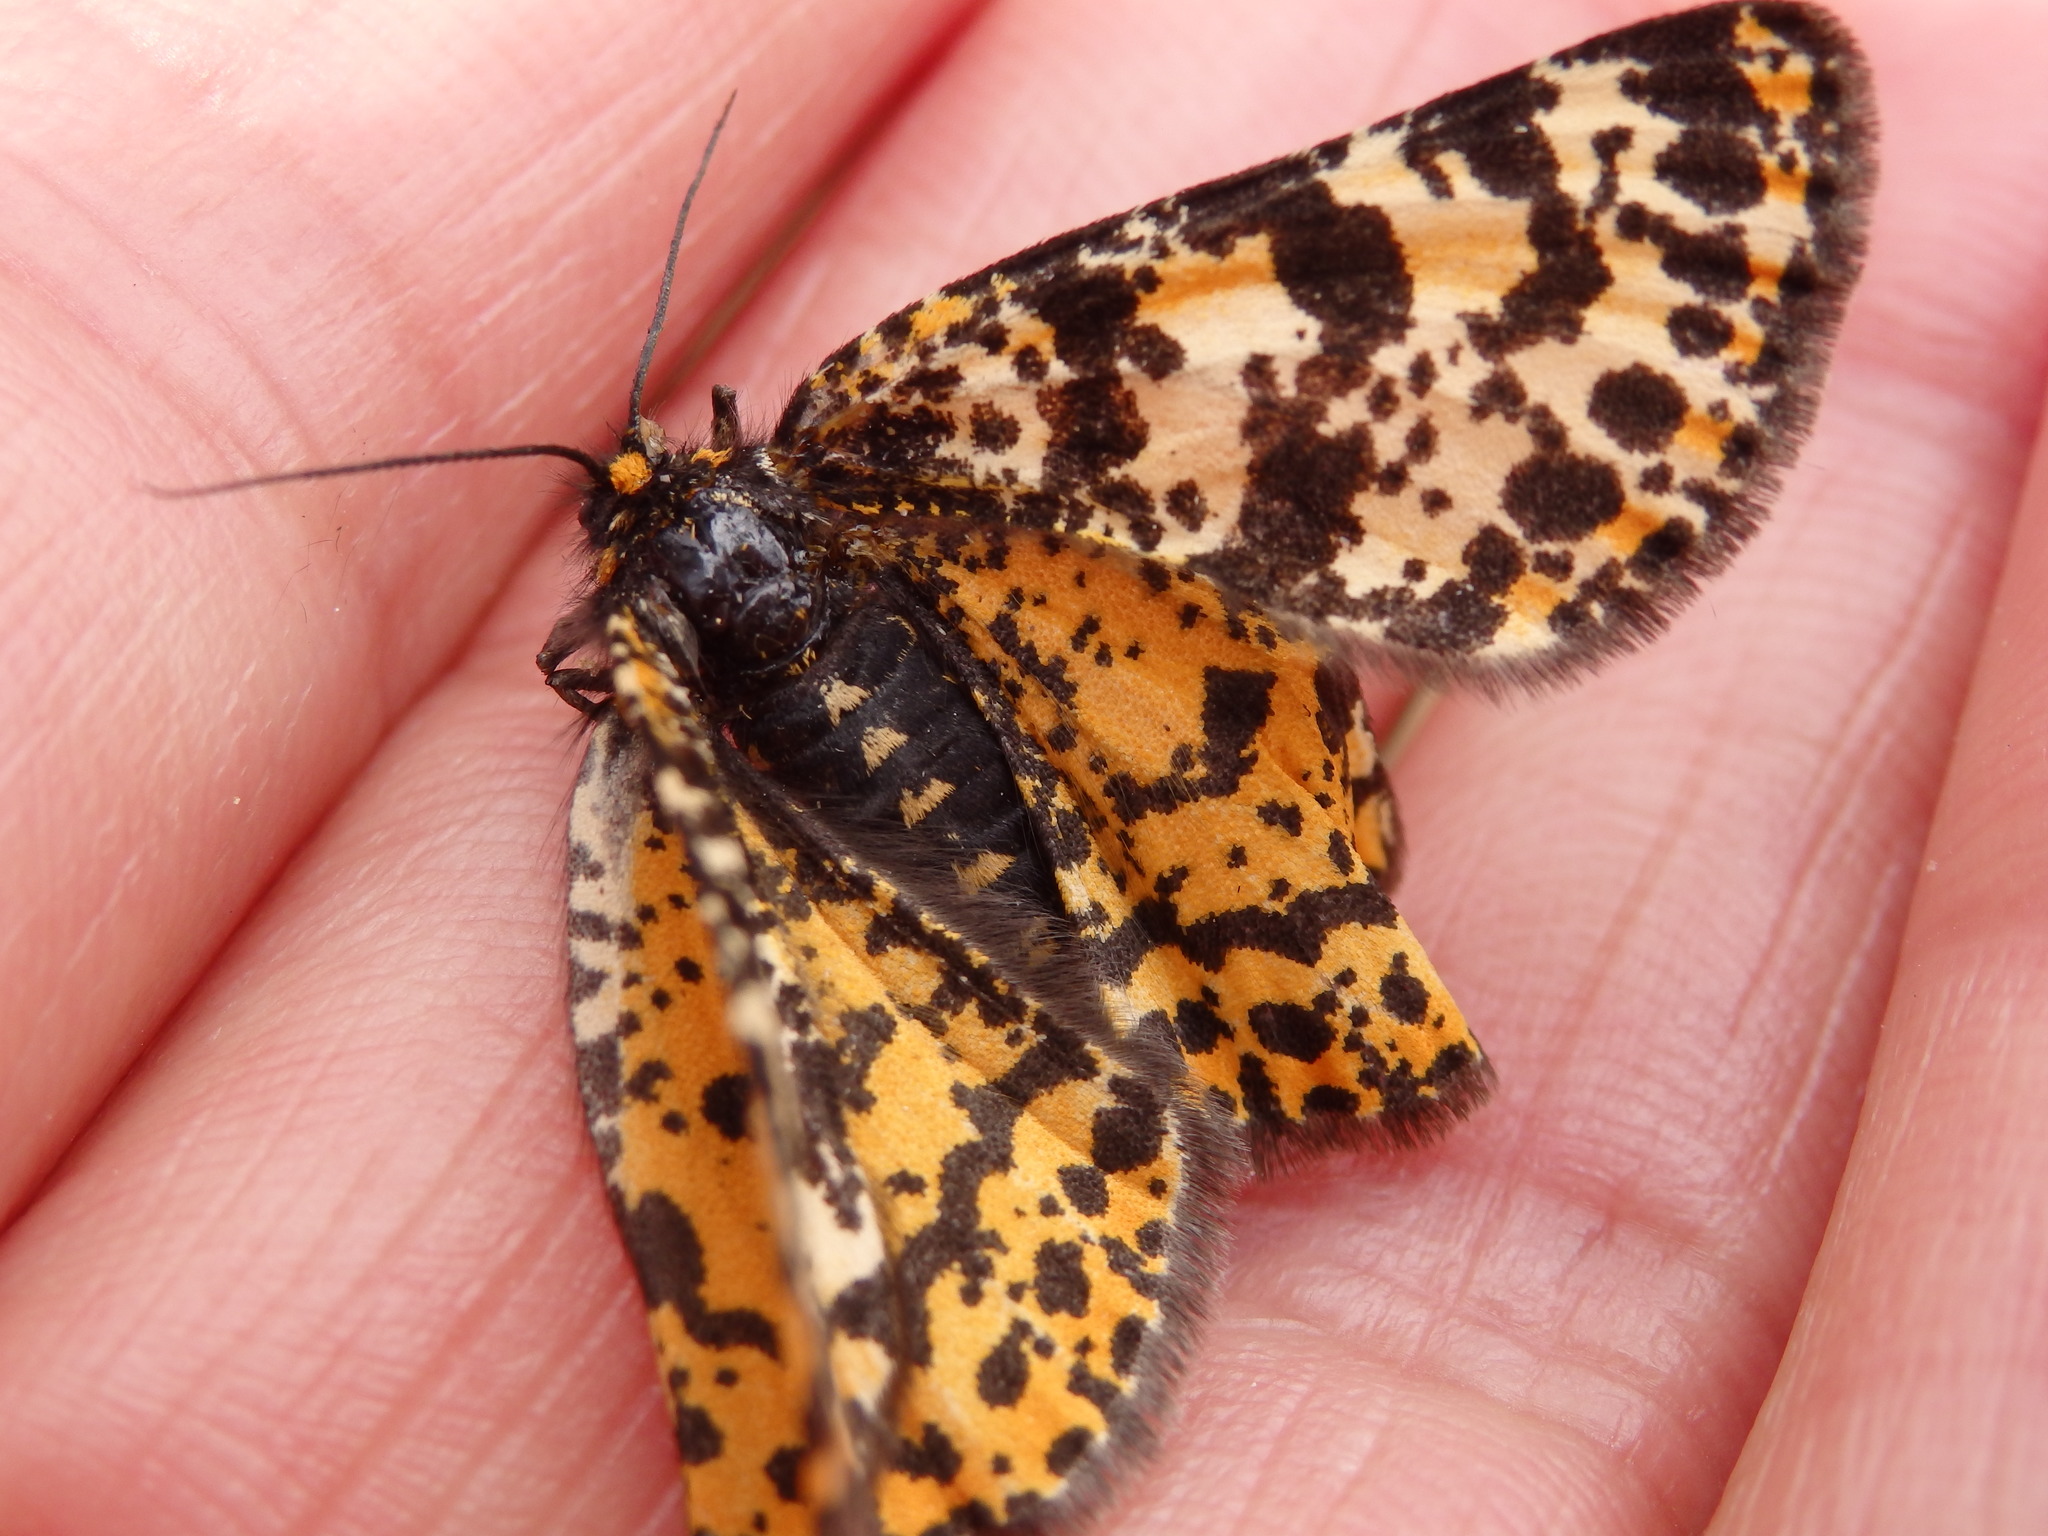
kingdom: Animalia
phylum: Arthropoda
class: Insecta
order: Lepidoptera
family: Geometridae
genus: Eurranthis
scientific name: Eurranthis plummistaria
